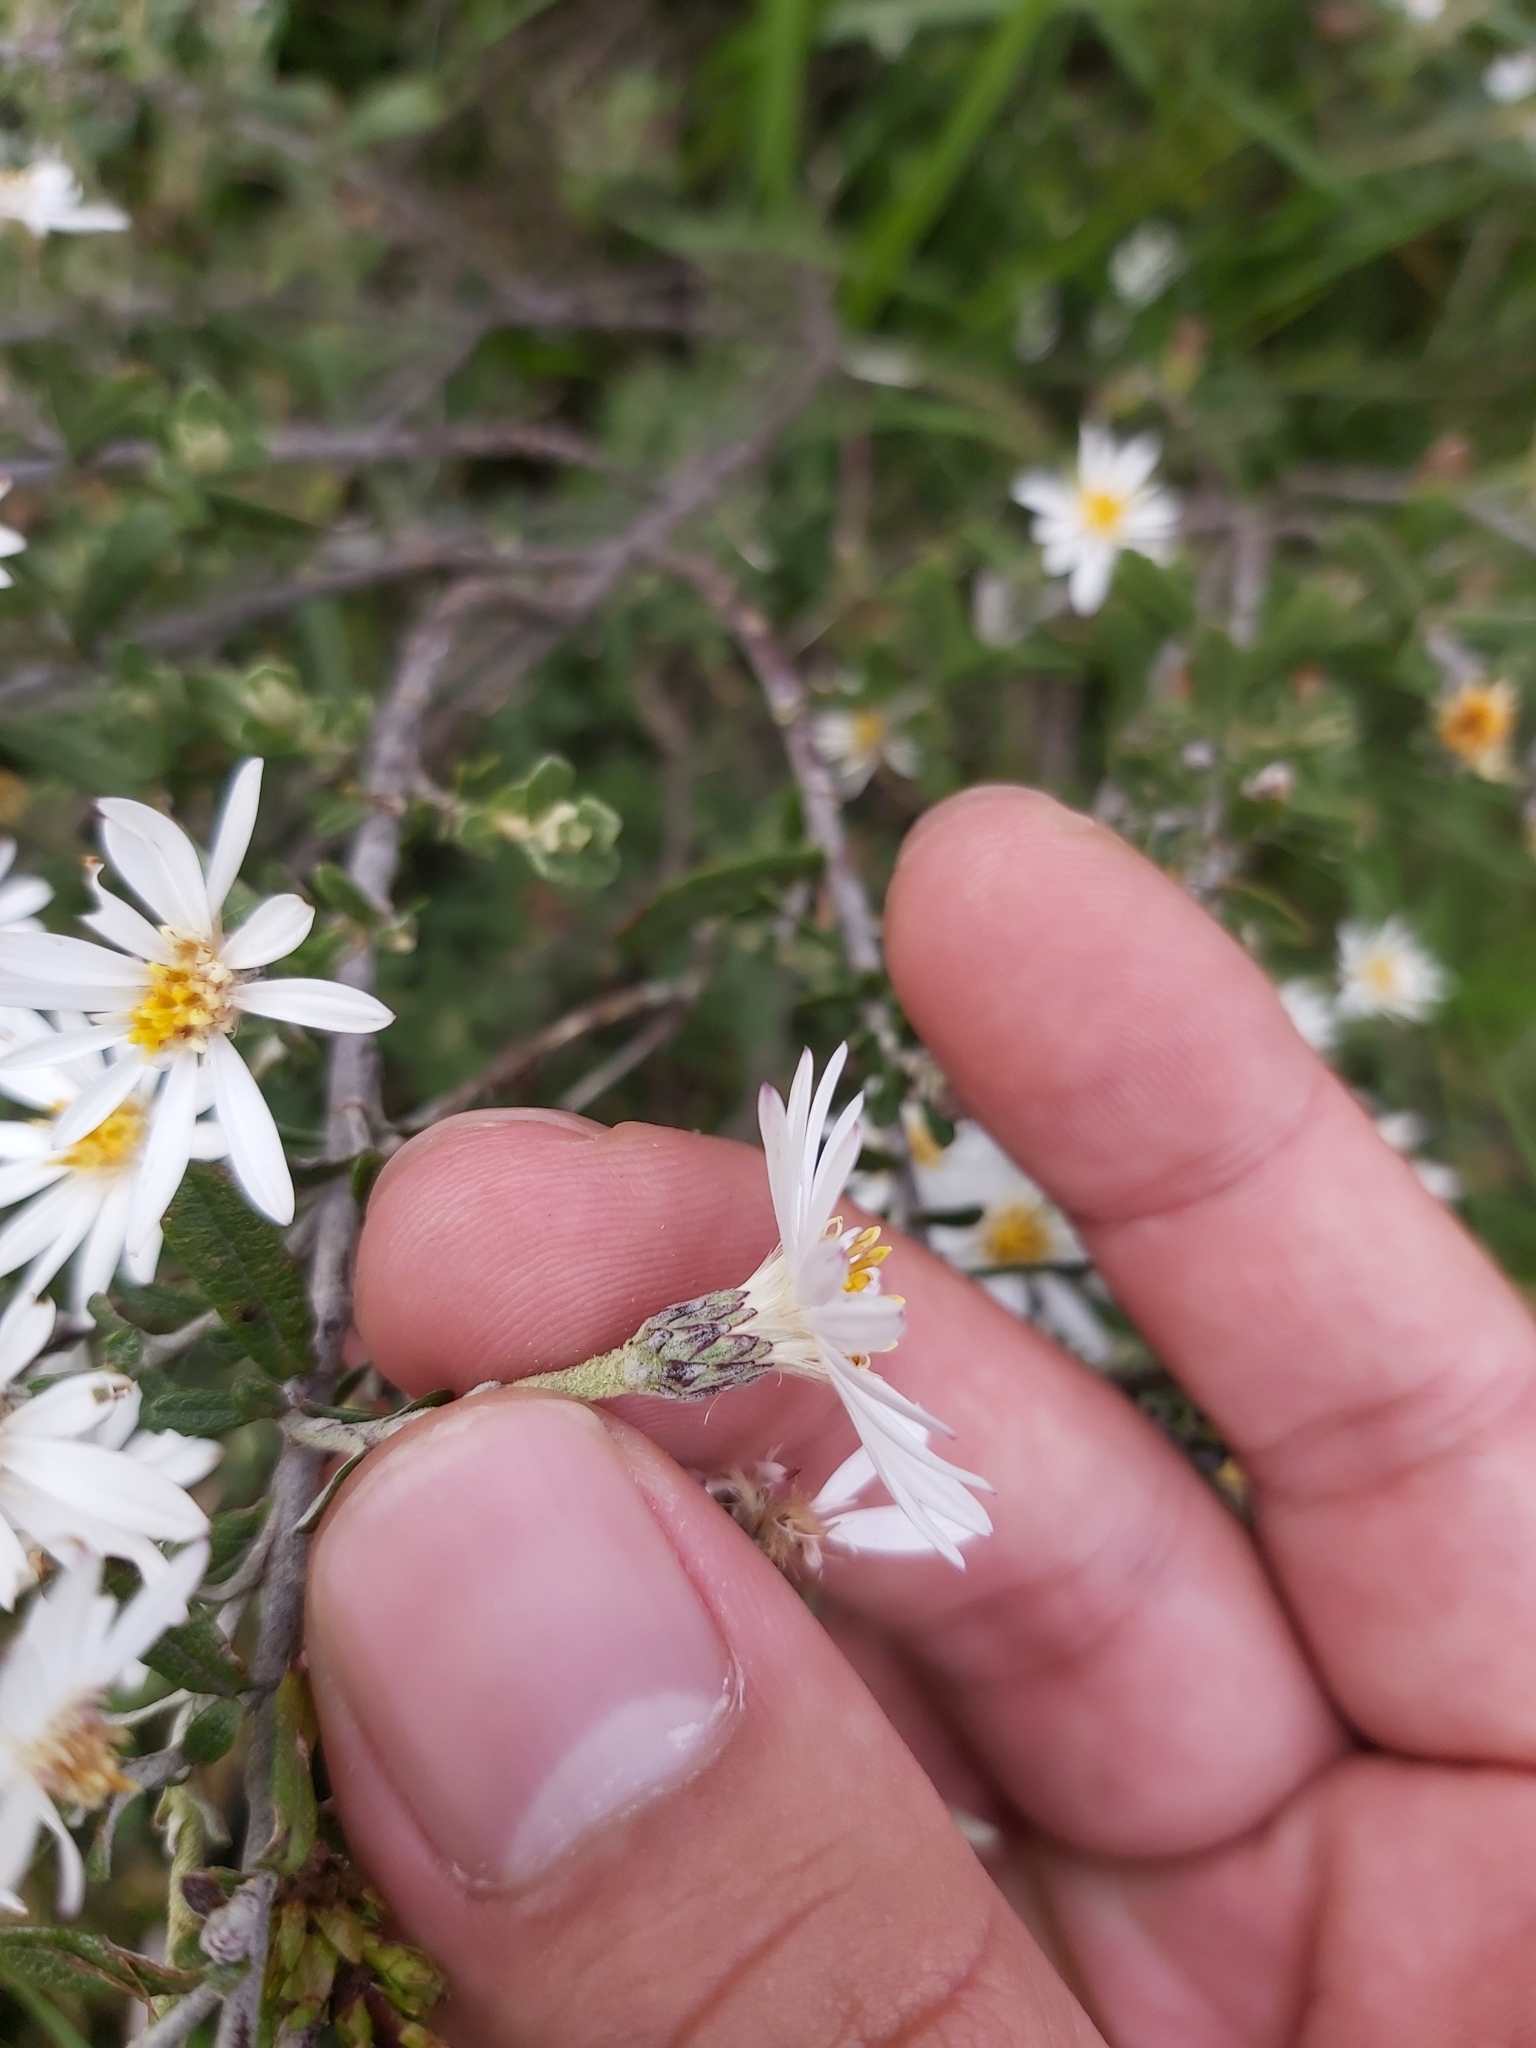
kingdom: Plantae
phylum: Tracheophyta
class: Magnoliopsida
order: Asterales
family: Asteraceae
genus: Olearia
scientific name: Olearia phlogopappa
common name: Alpine daisybush
